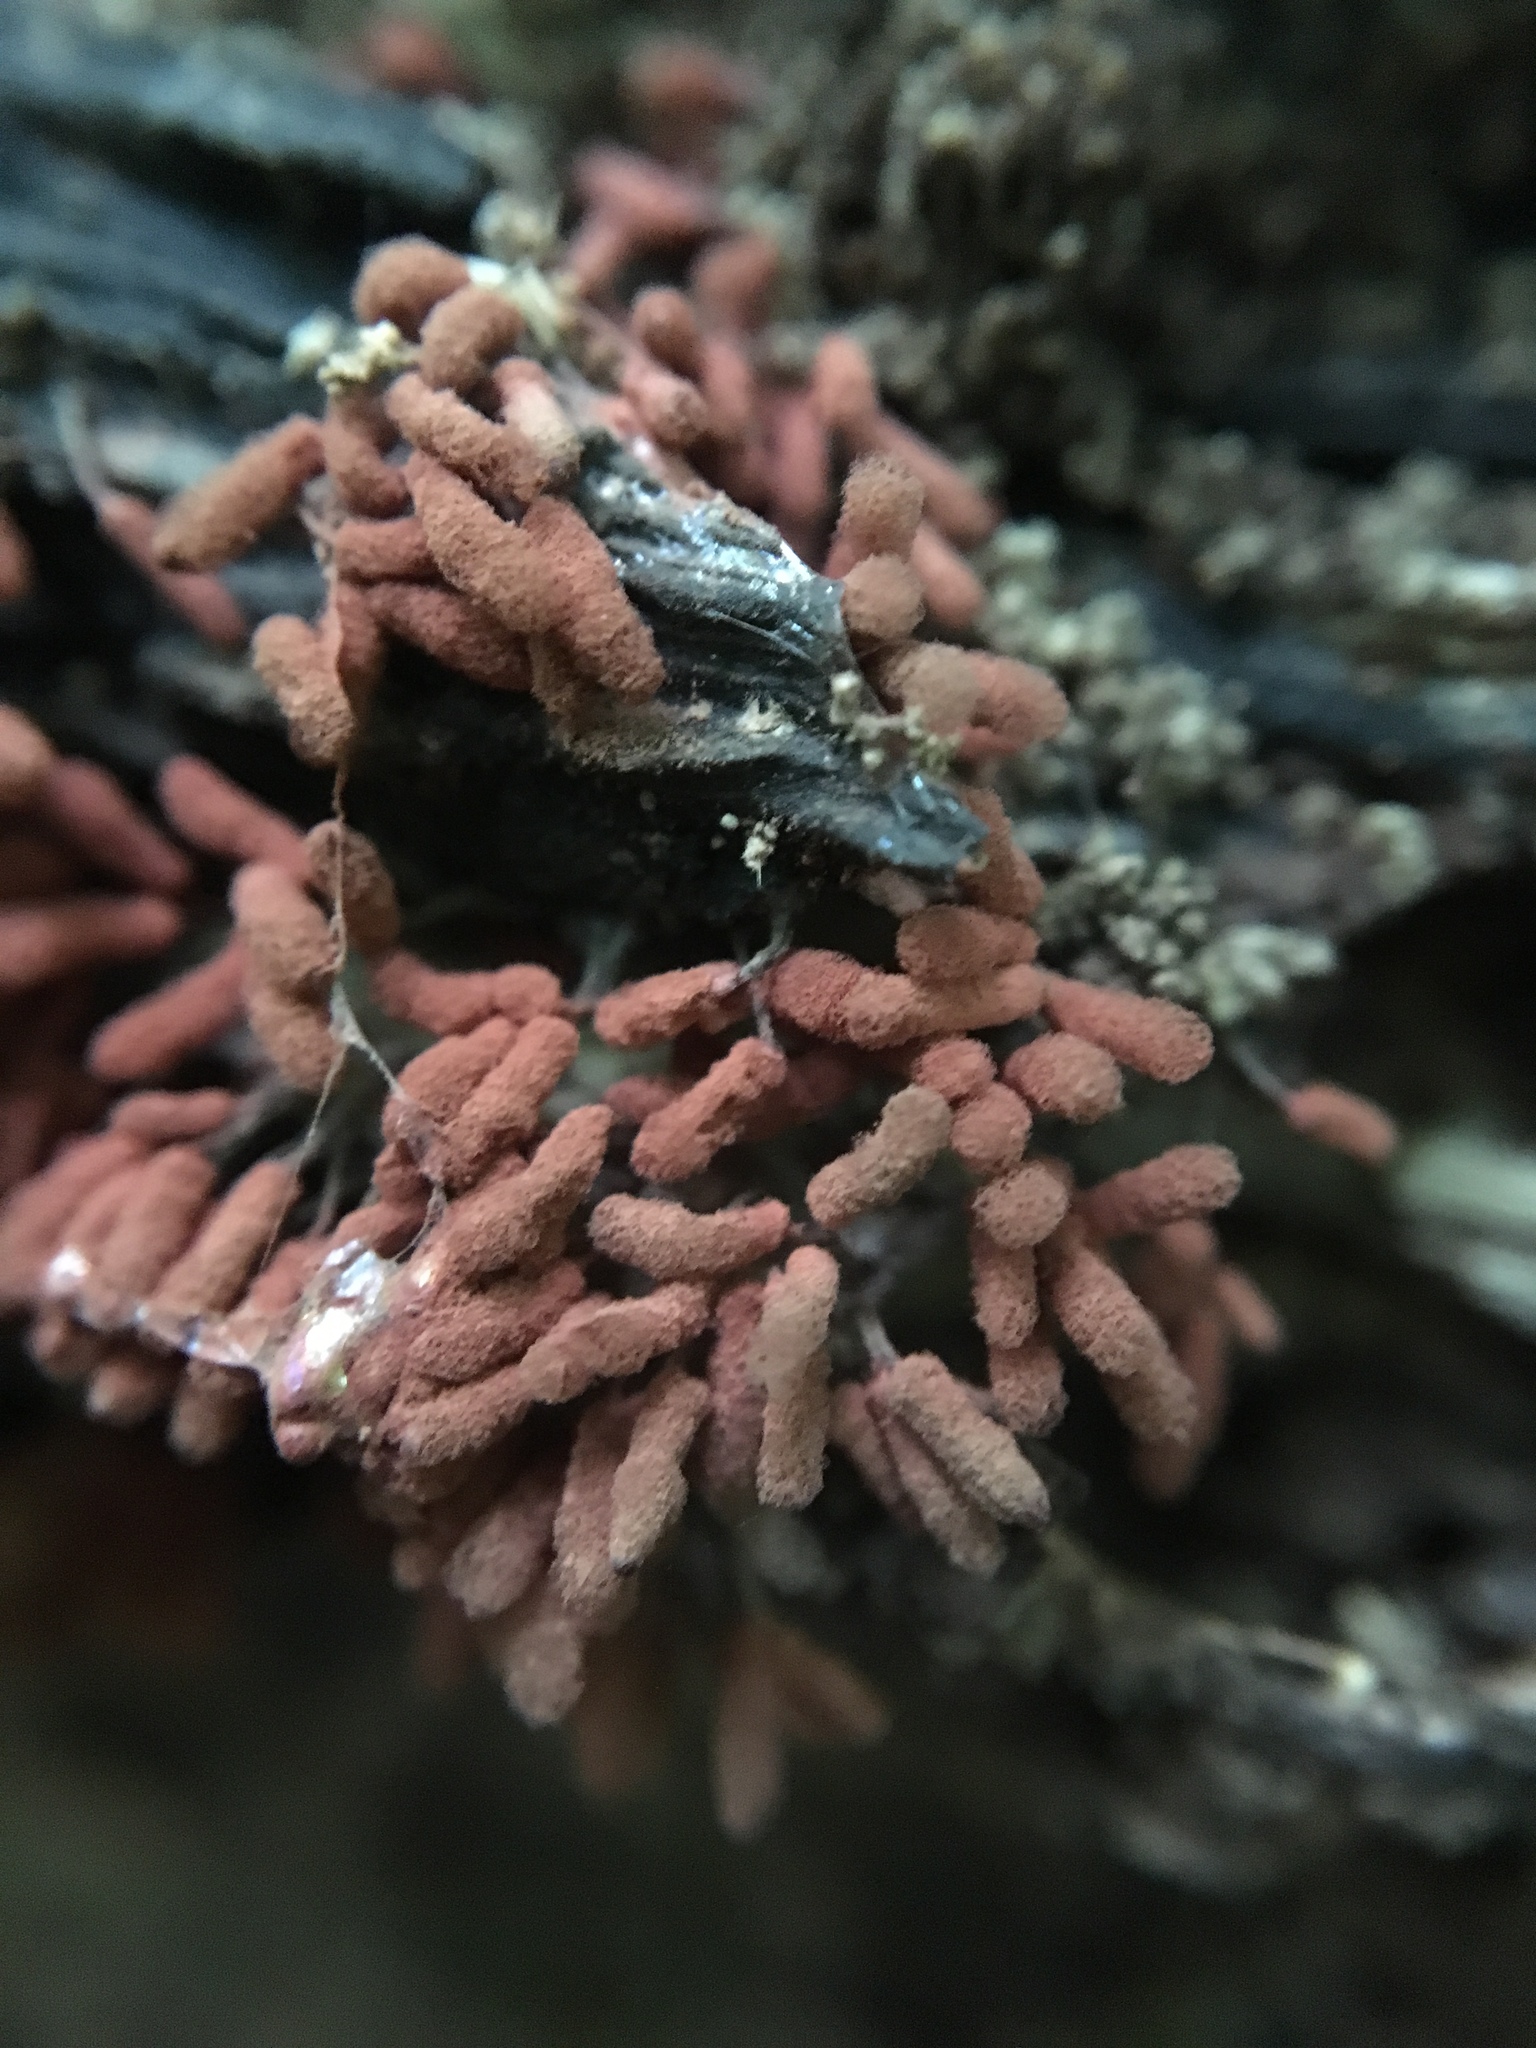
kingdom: Protozoa
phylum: Mycetozoa
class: Myxomycetes
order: Trichiales
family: Arcyriaceae
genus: Arcyria
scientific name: Arcyria denudata
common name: Carnival candy slime mold
